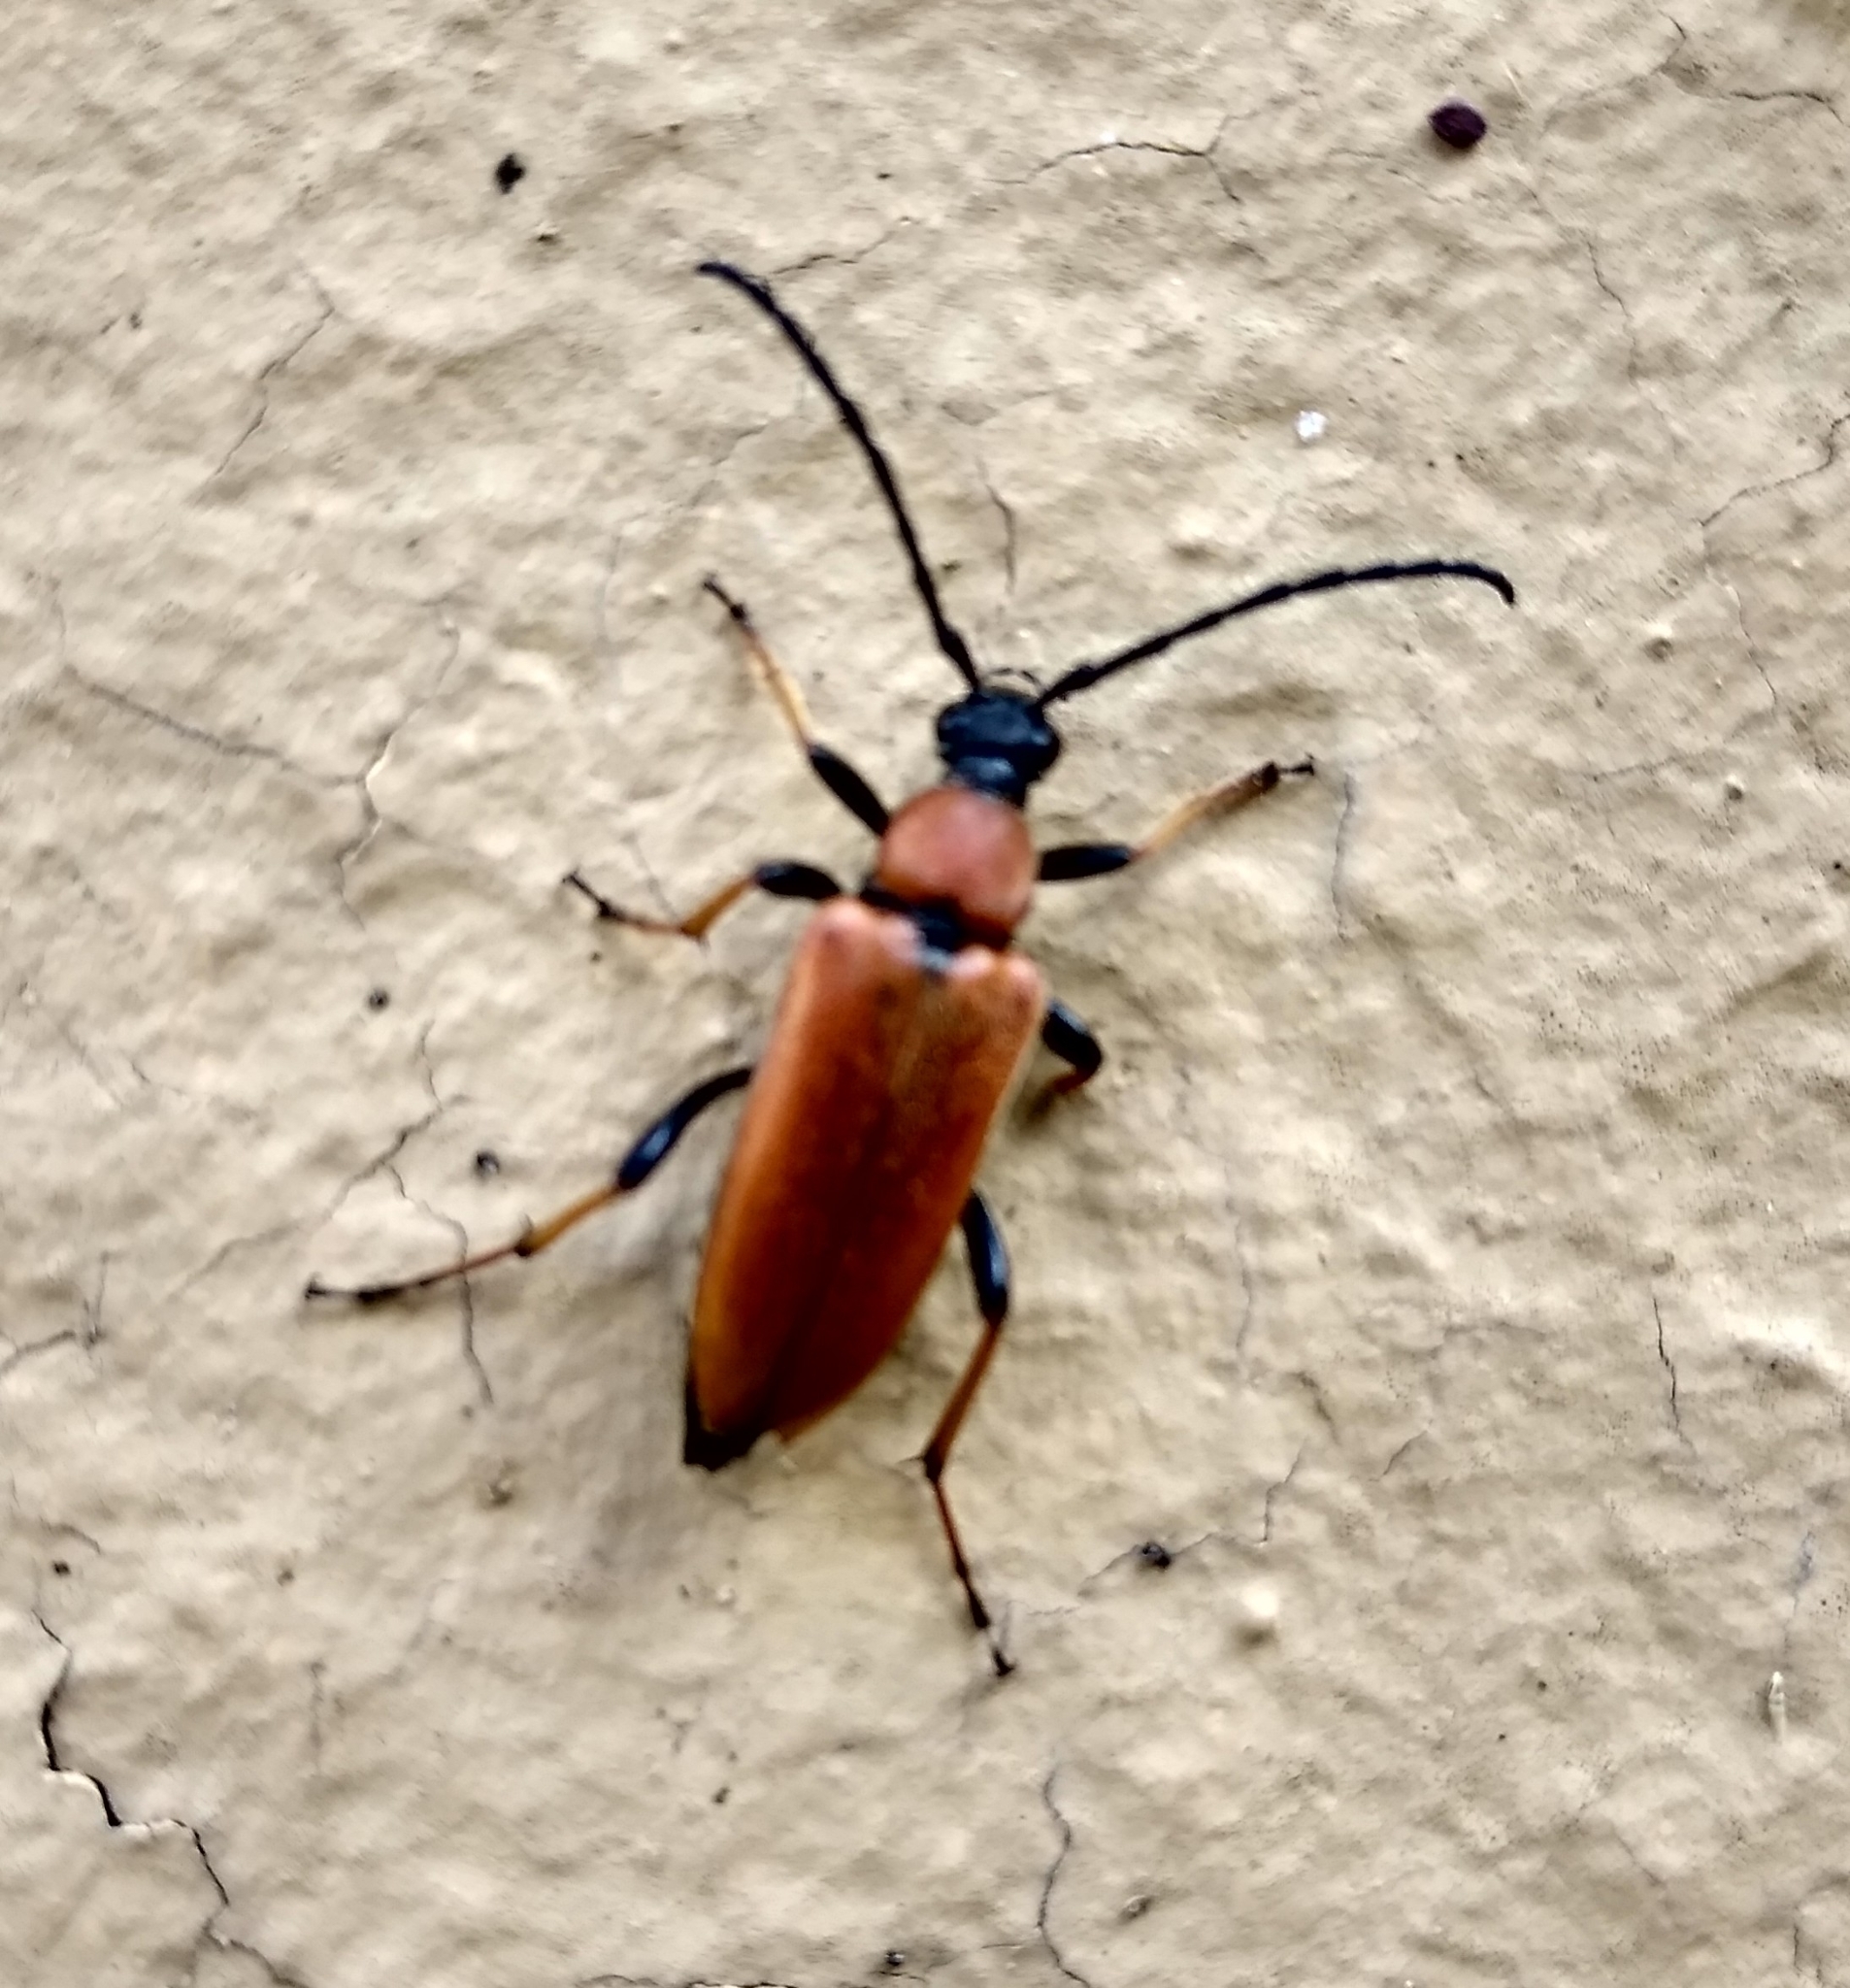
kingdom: Animalia
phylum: Arthropoda
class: Insecta
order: Coleoptera
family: Cerambycidae
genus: Stictoleptura
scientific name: Stictoleptura rubra
